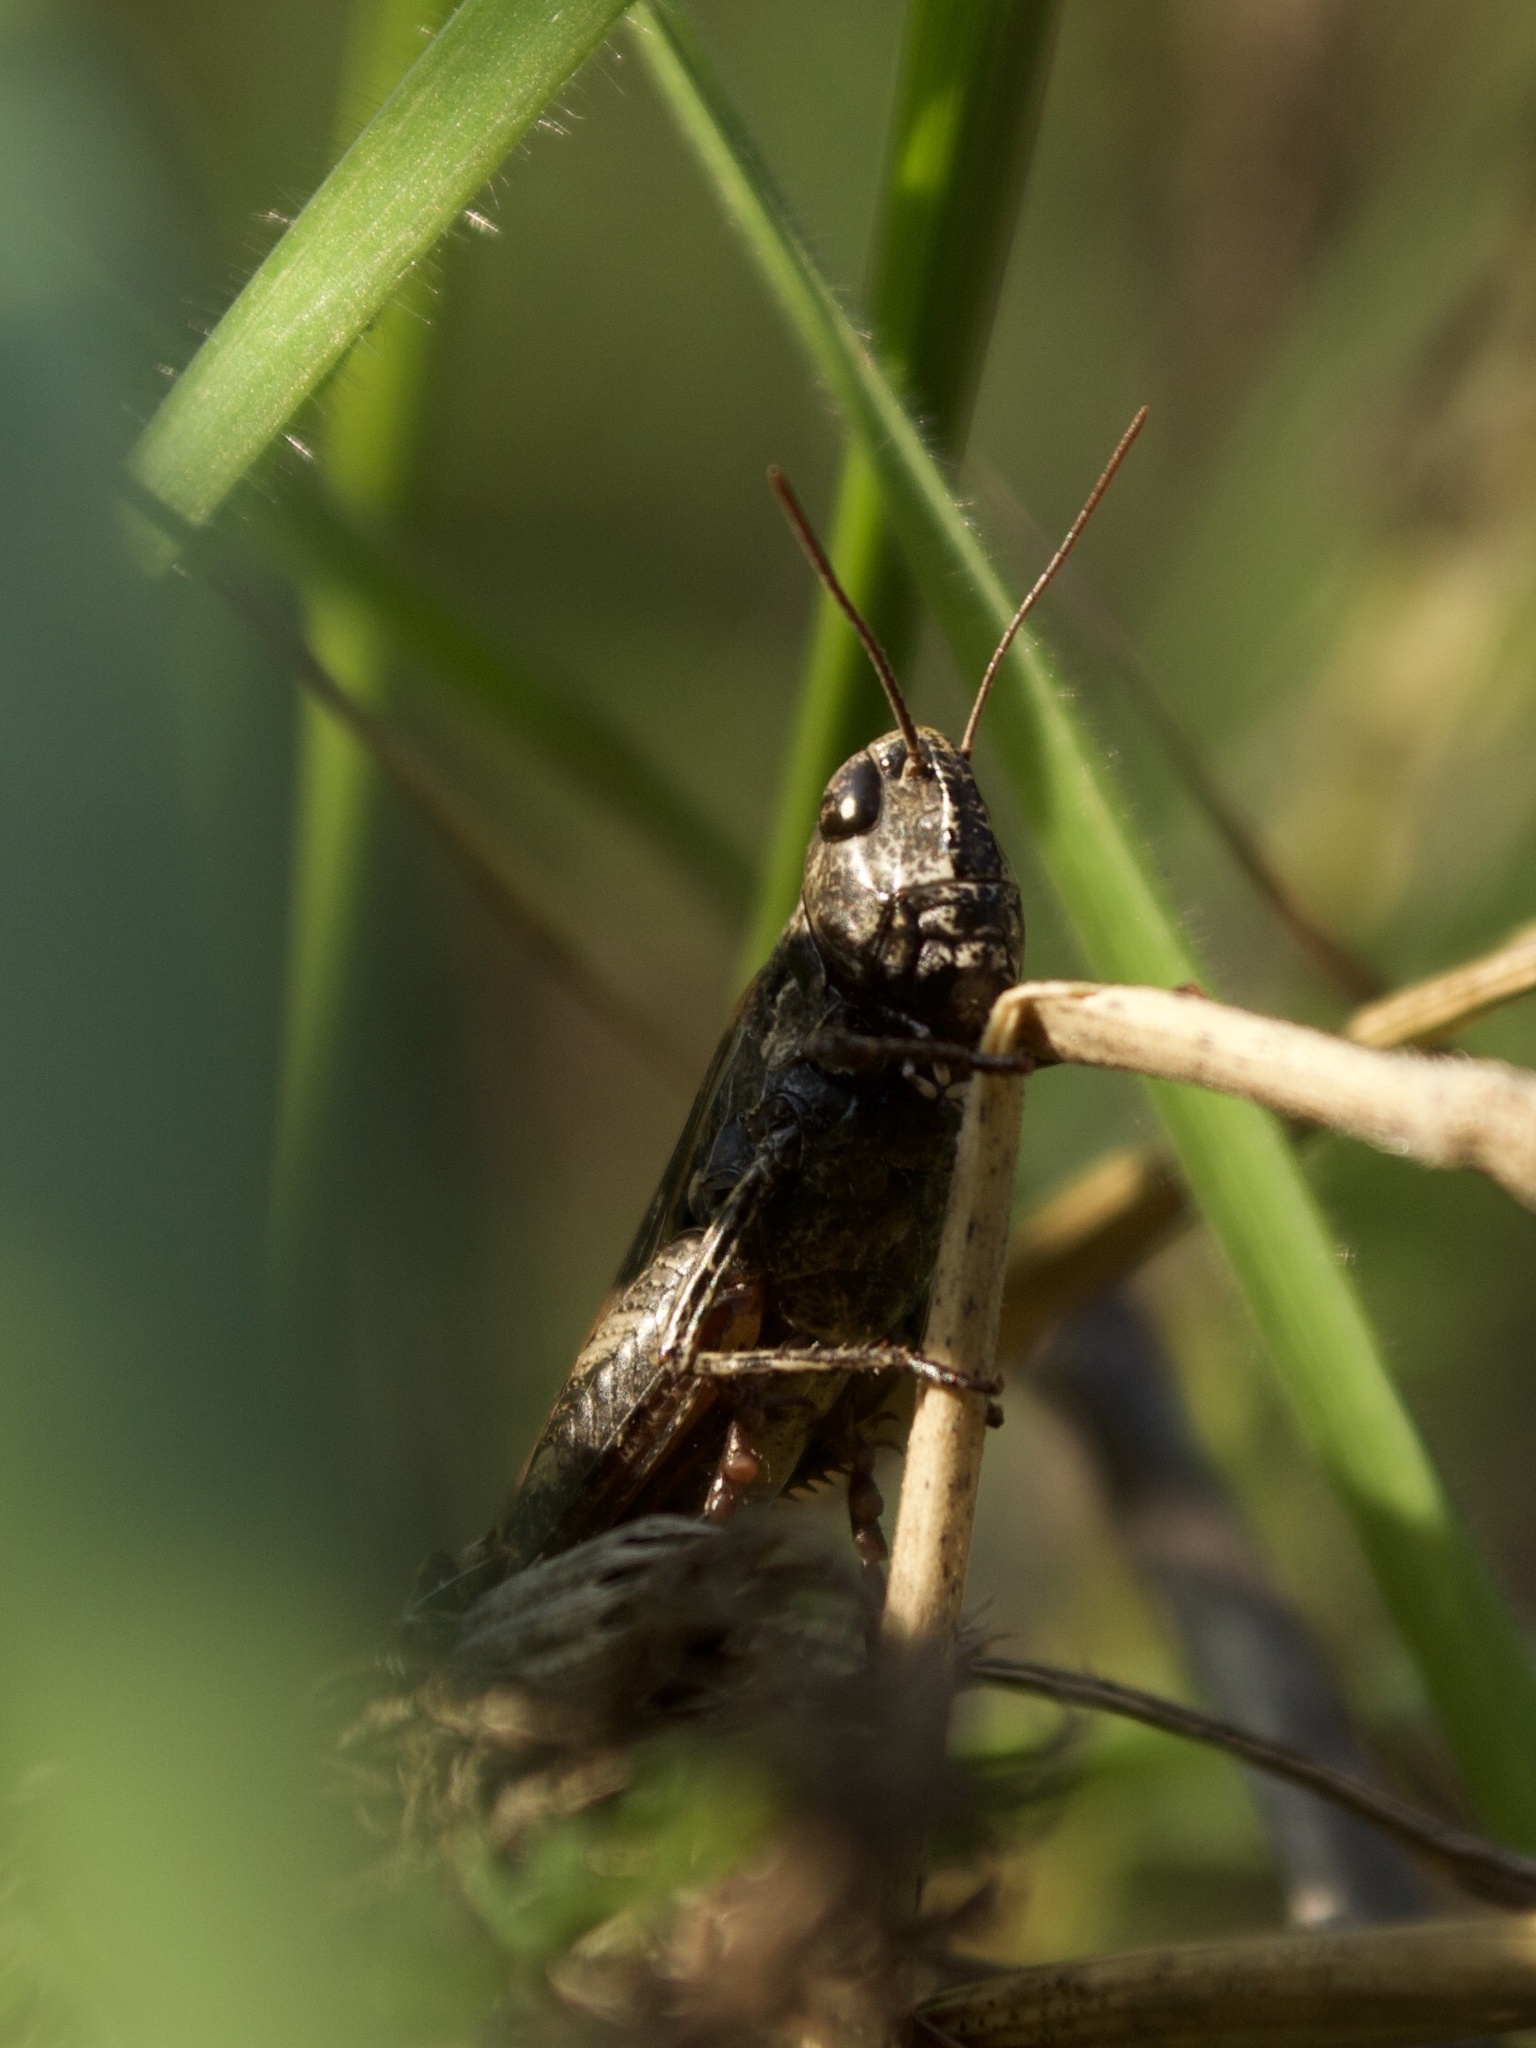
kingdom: Animalia
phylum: Arthropoda
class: Insecta
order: Orthoptera
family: Acrididae
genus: Chorthippus
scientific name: Chorthippus dorsatus
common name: Steppe grasshopper
